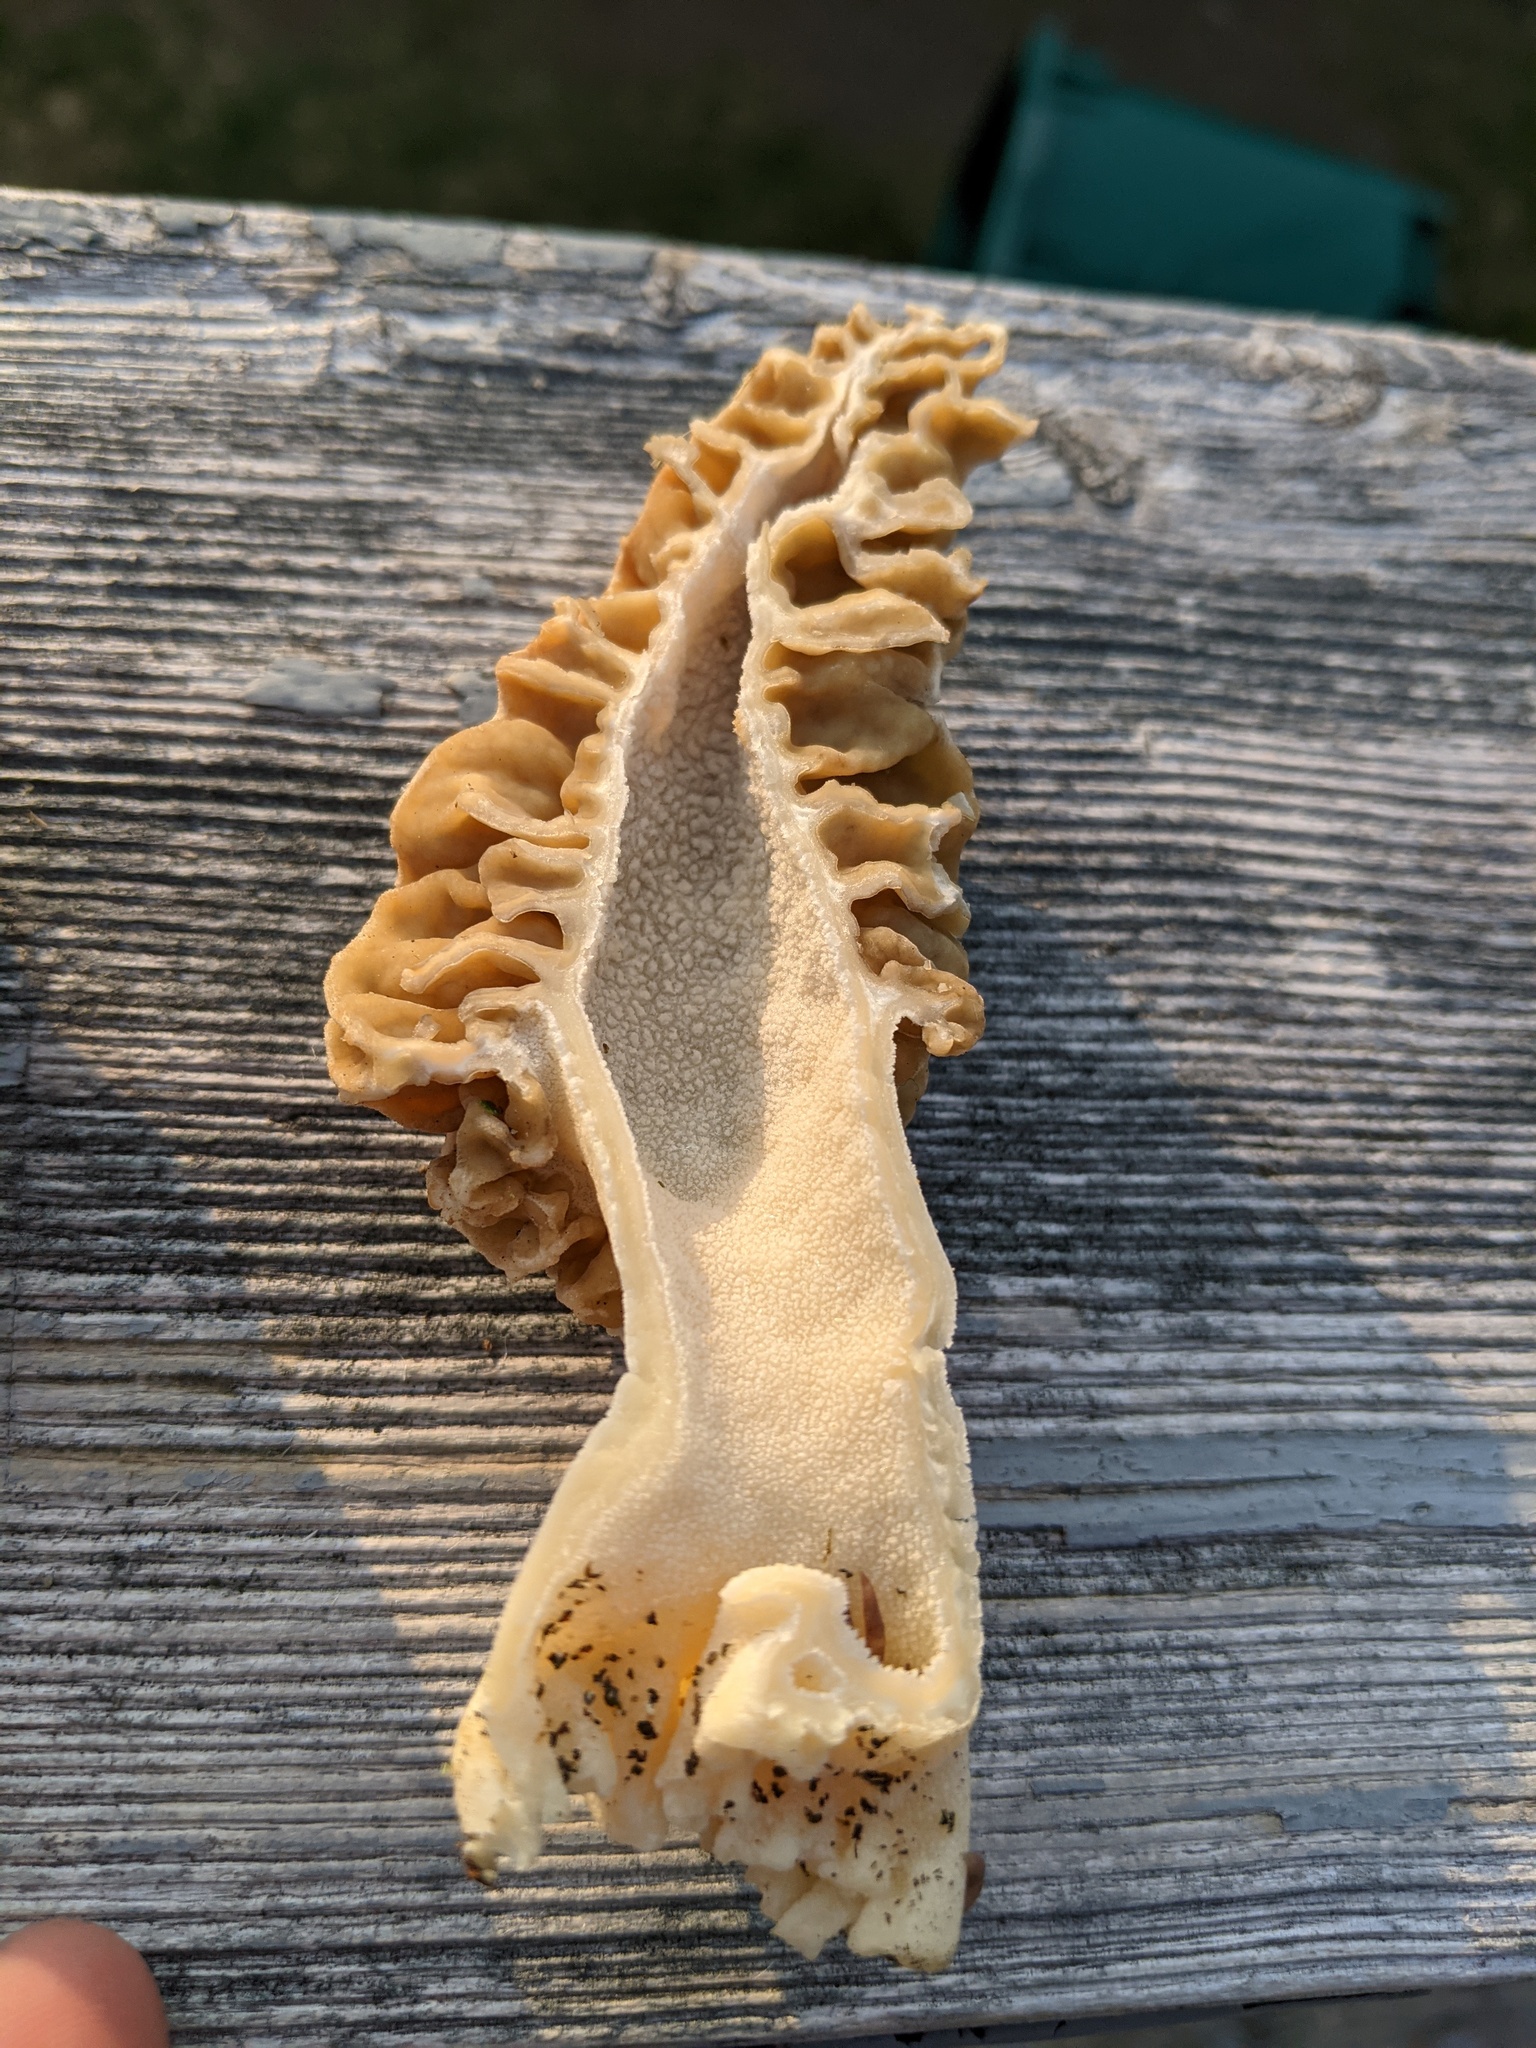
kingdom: Fungi
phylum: Ascomycota
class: Pezizomycetes
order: Pezizales
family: Morchellaceae
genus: Morchella
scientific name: Morchella americana
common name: White morel
